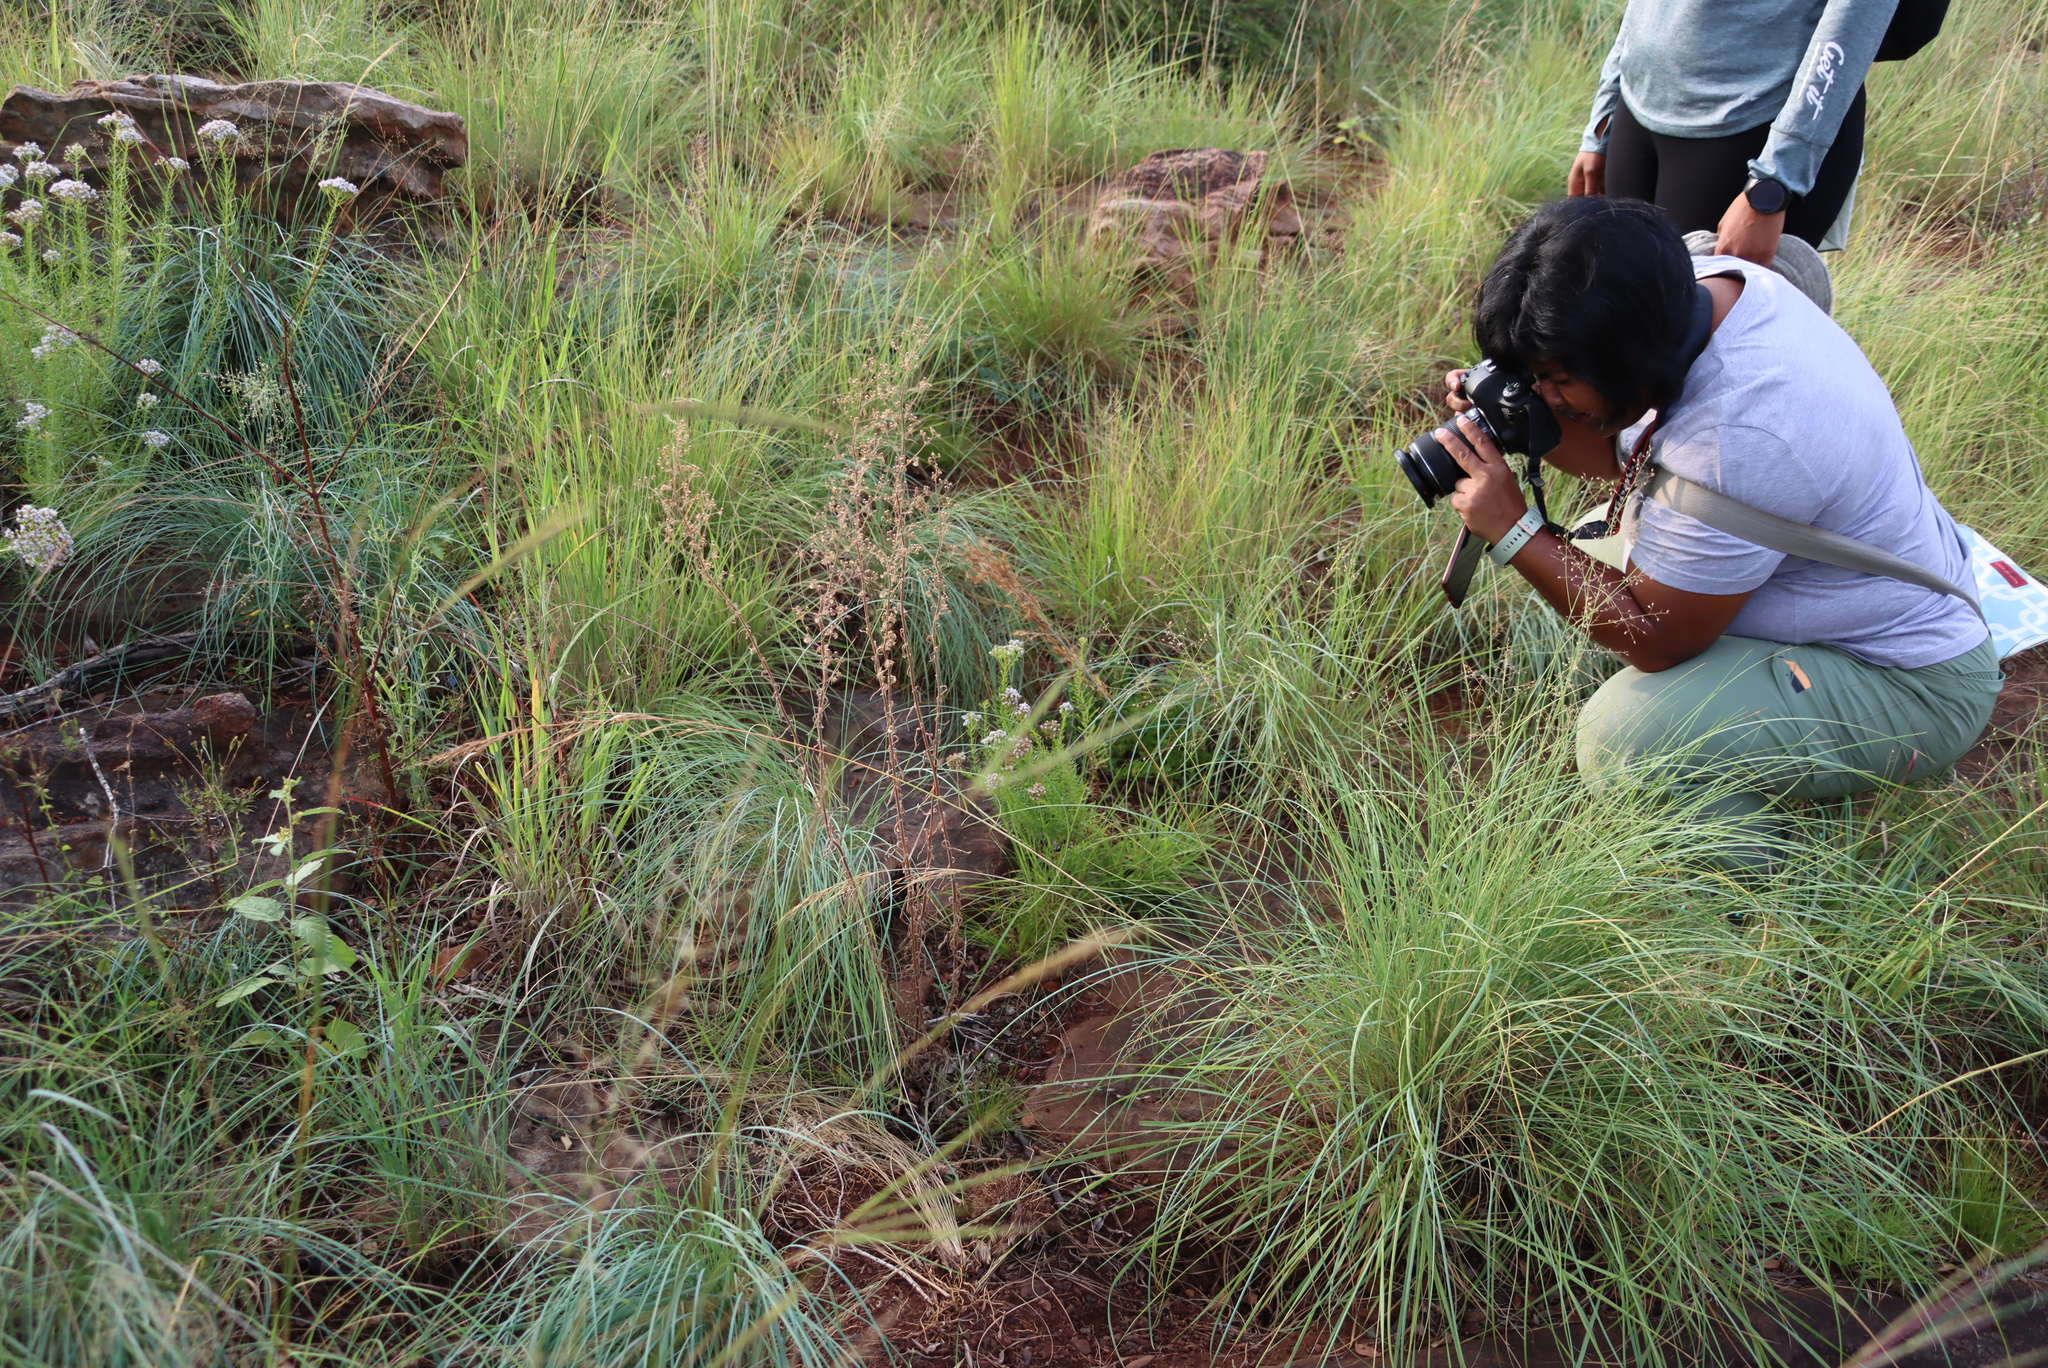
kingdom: Plantae
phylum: Tracheophyta
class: Magnoliopsida
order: Lamiales
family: Scrophulariaceae
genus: Tetraselago
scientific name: Tetraselago natalensis
